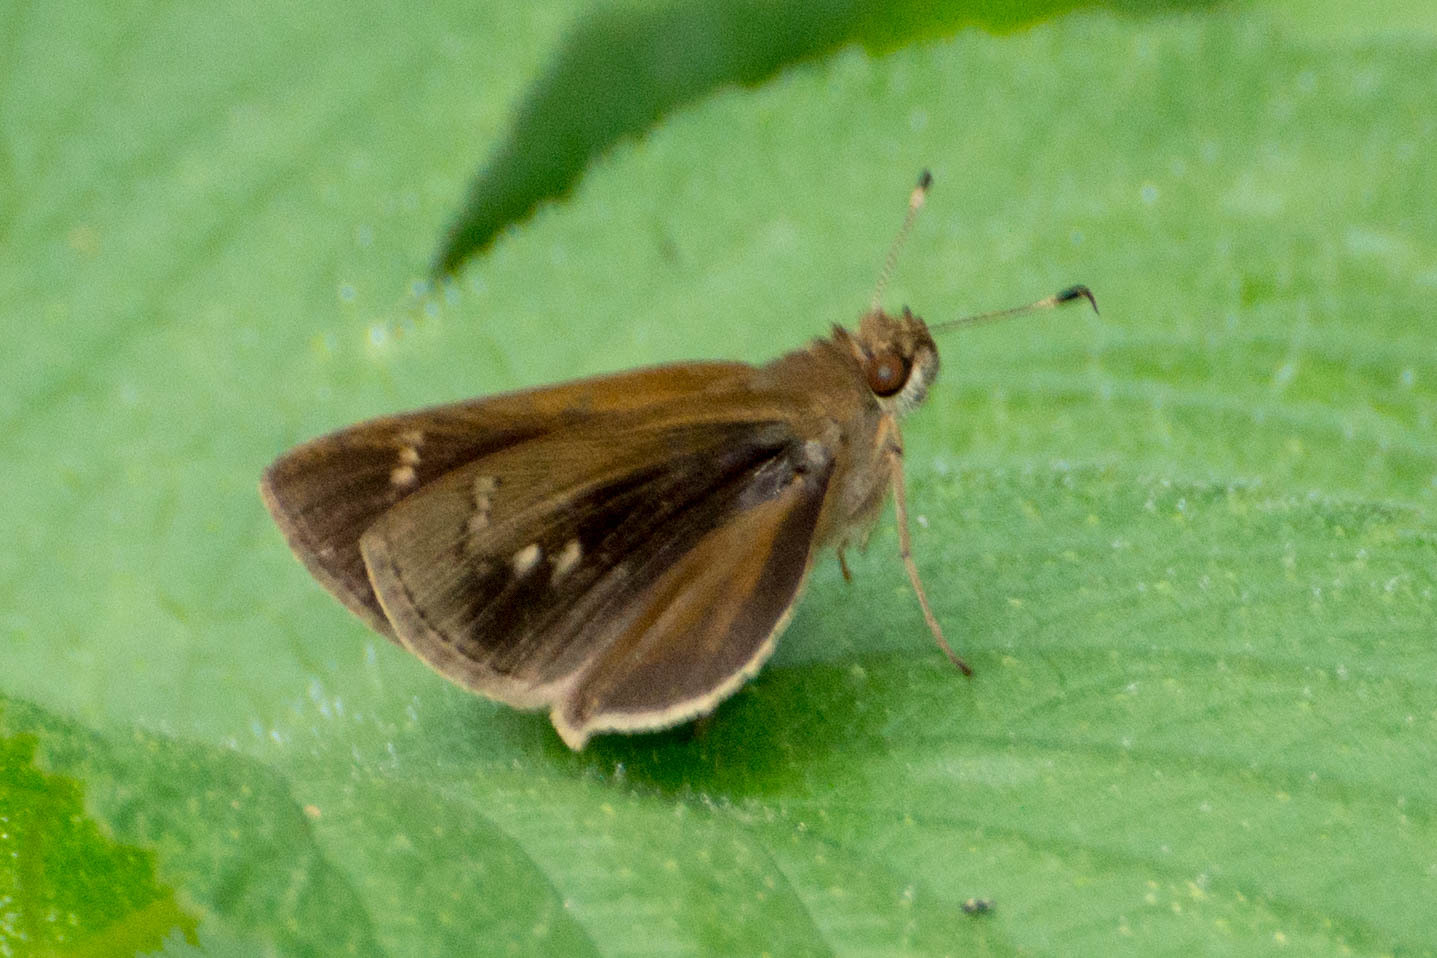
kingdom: Animalia
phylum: Arthropoda
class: Insecta
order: Lepidoptera
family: Hesperiidae
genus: Cymaenes
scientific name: Cymaenes gisca
